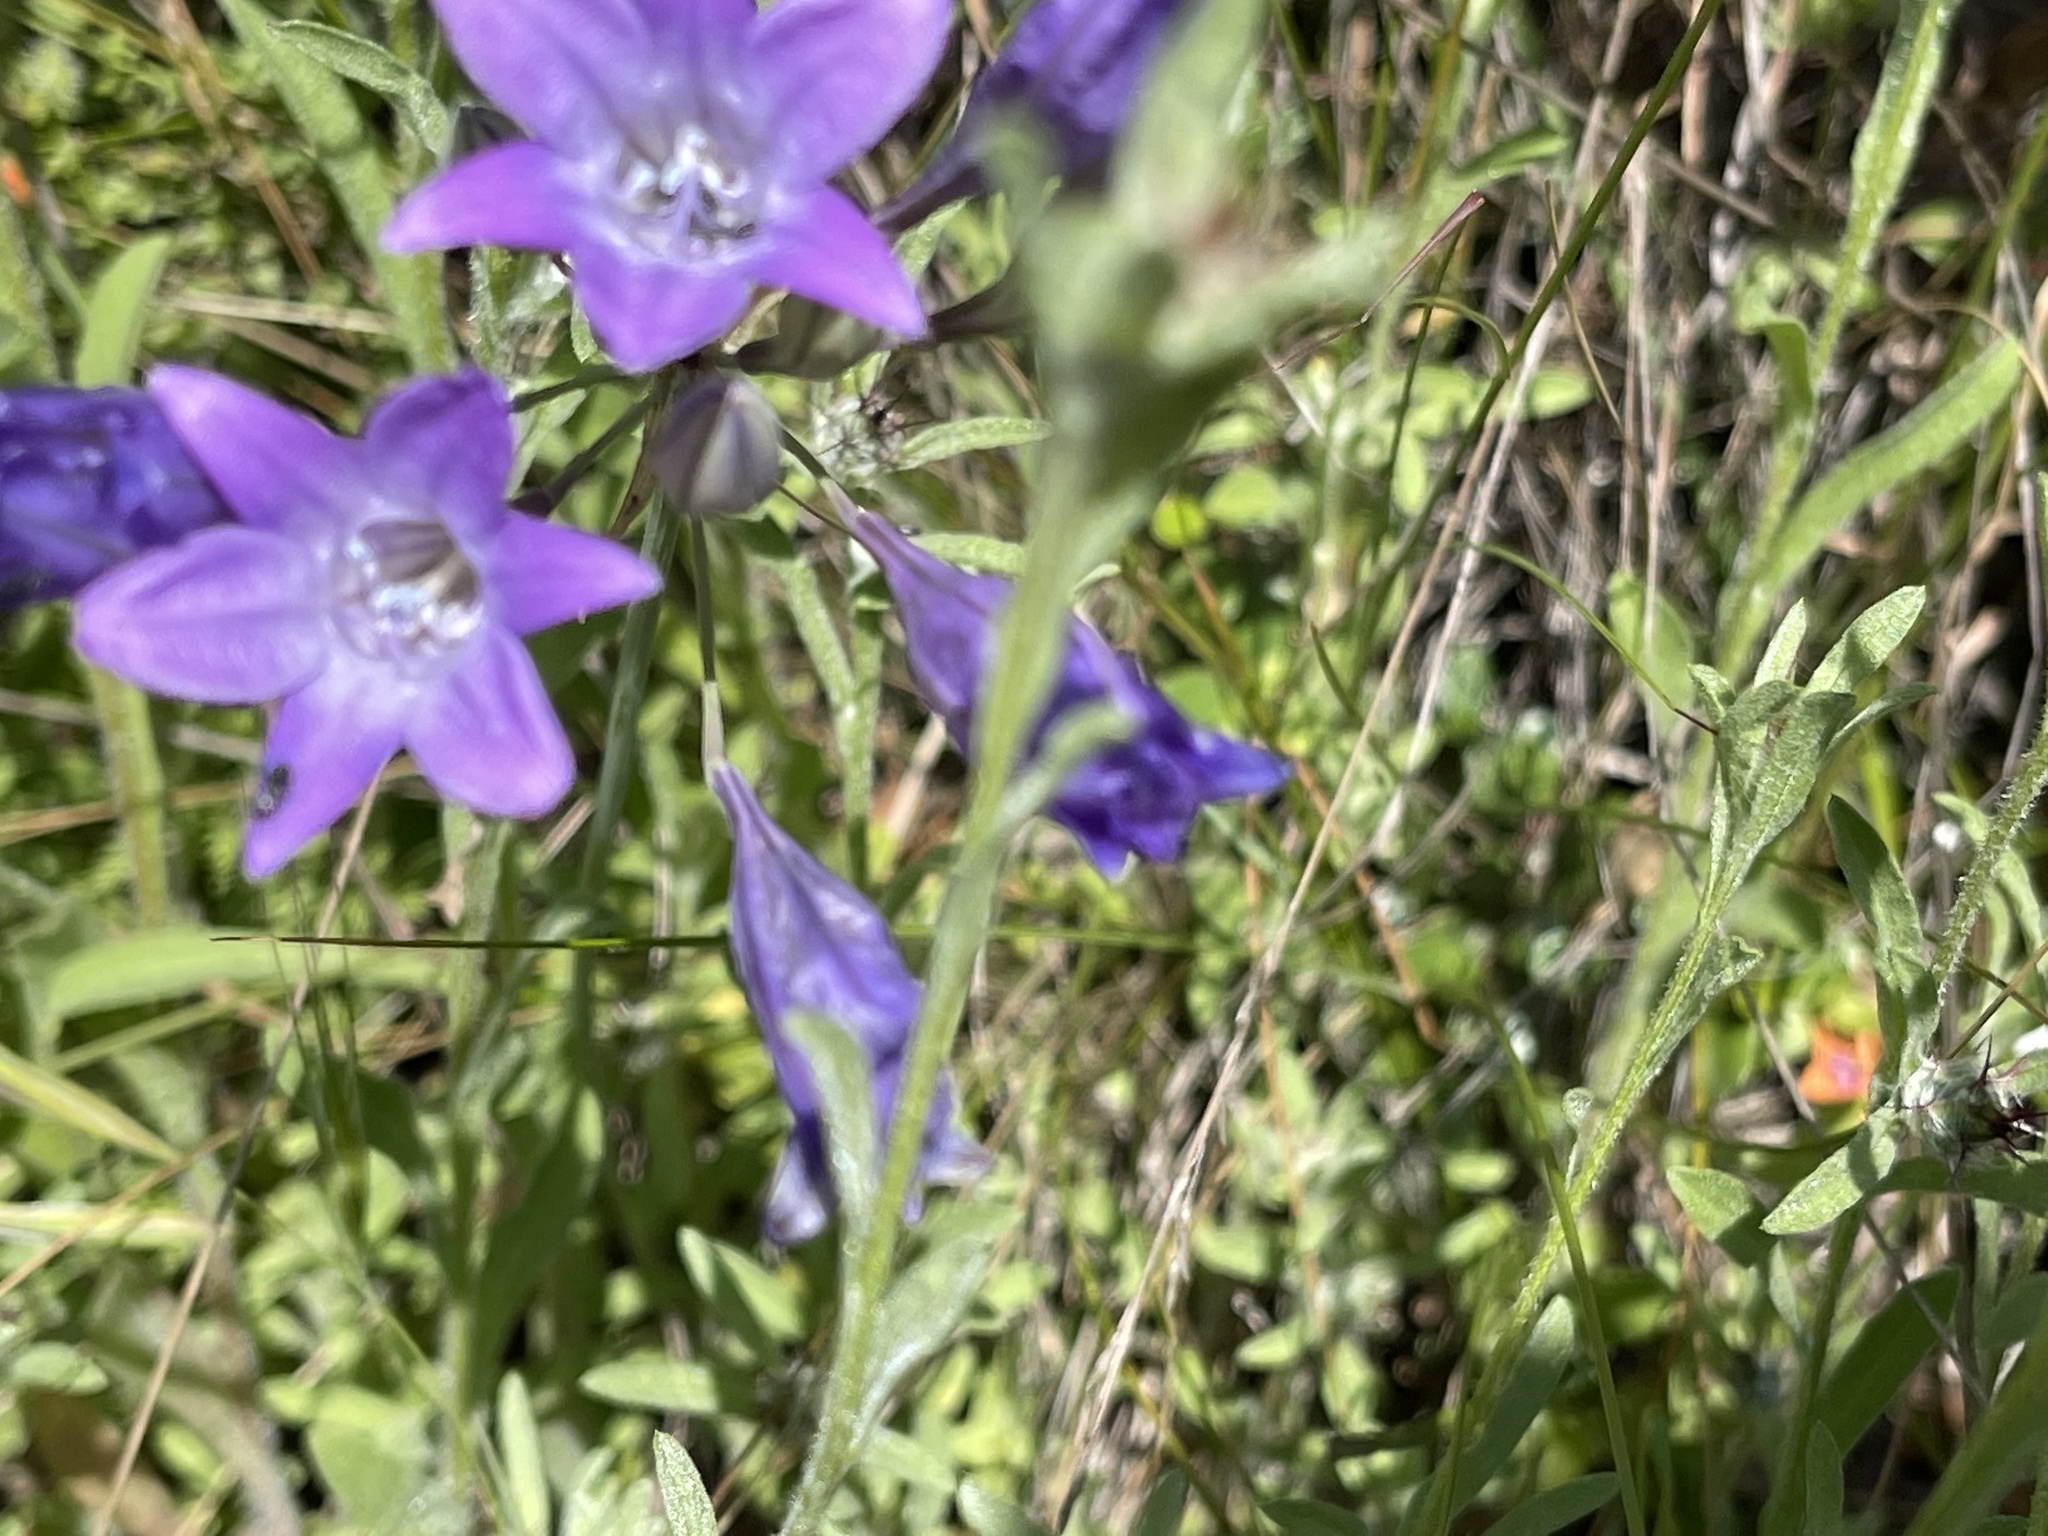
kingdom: Plantae
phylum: Tracheophyta
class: Liliopsida
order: Asparagales
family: Asparagaceae
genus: Triteleia
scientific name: Triteleia laxa
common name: Triplet-lily
